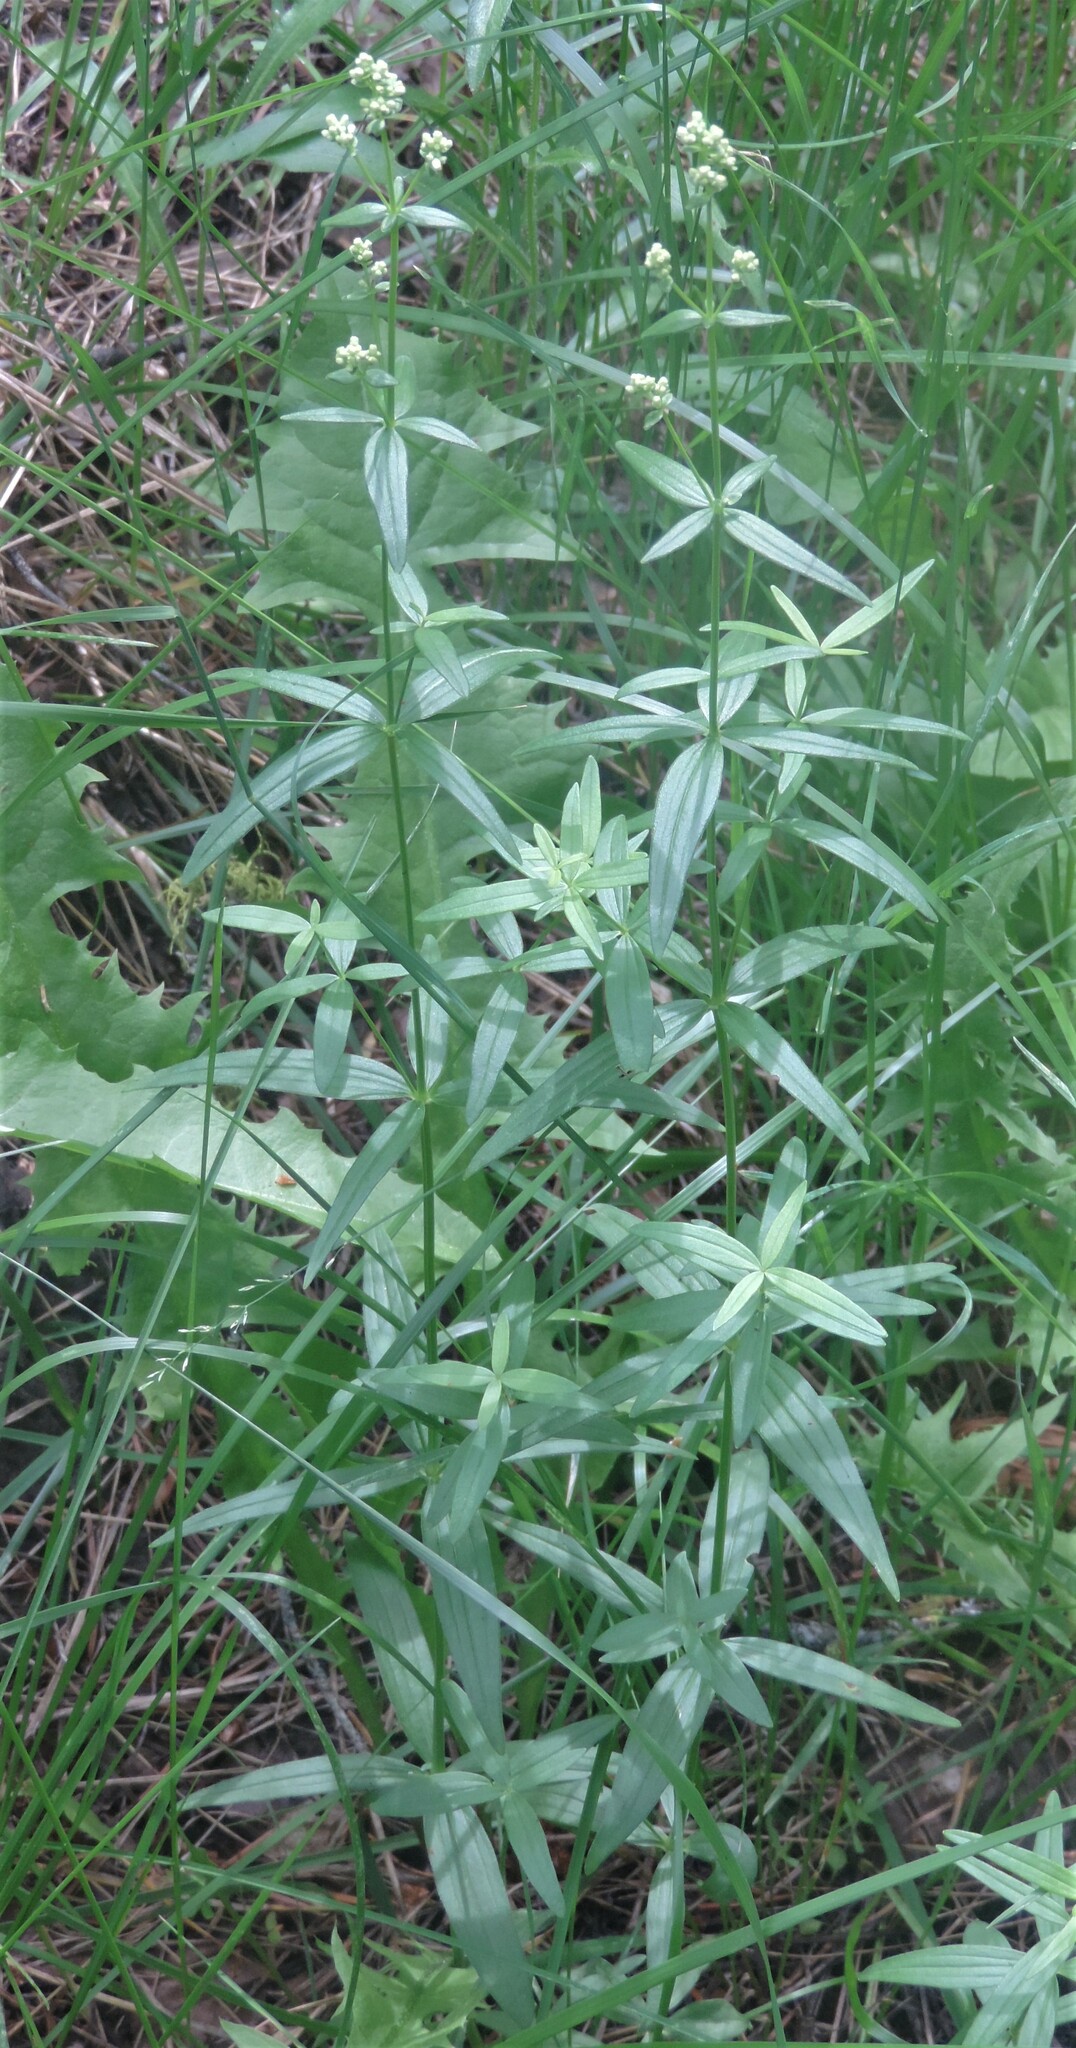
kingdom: Plantae
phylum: Tracheophyta
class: Magnoliopsida
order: Gentianales
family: Rubiaceae
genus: Galium
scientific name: Galium boreale
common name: Northern bedstraw
